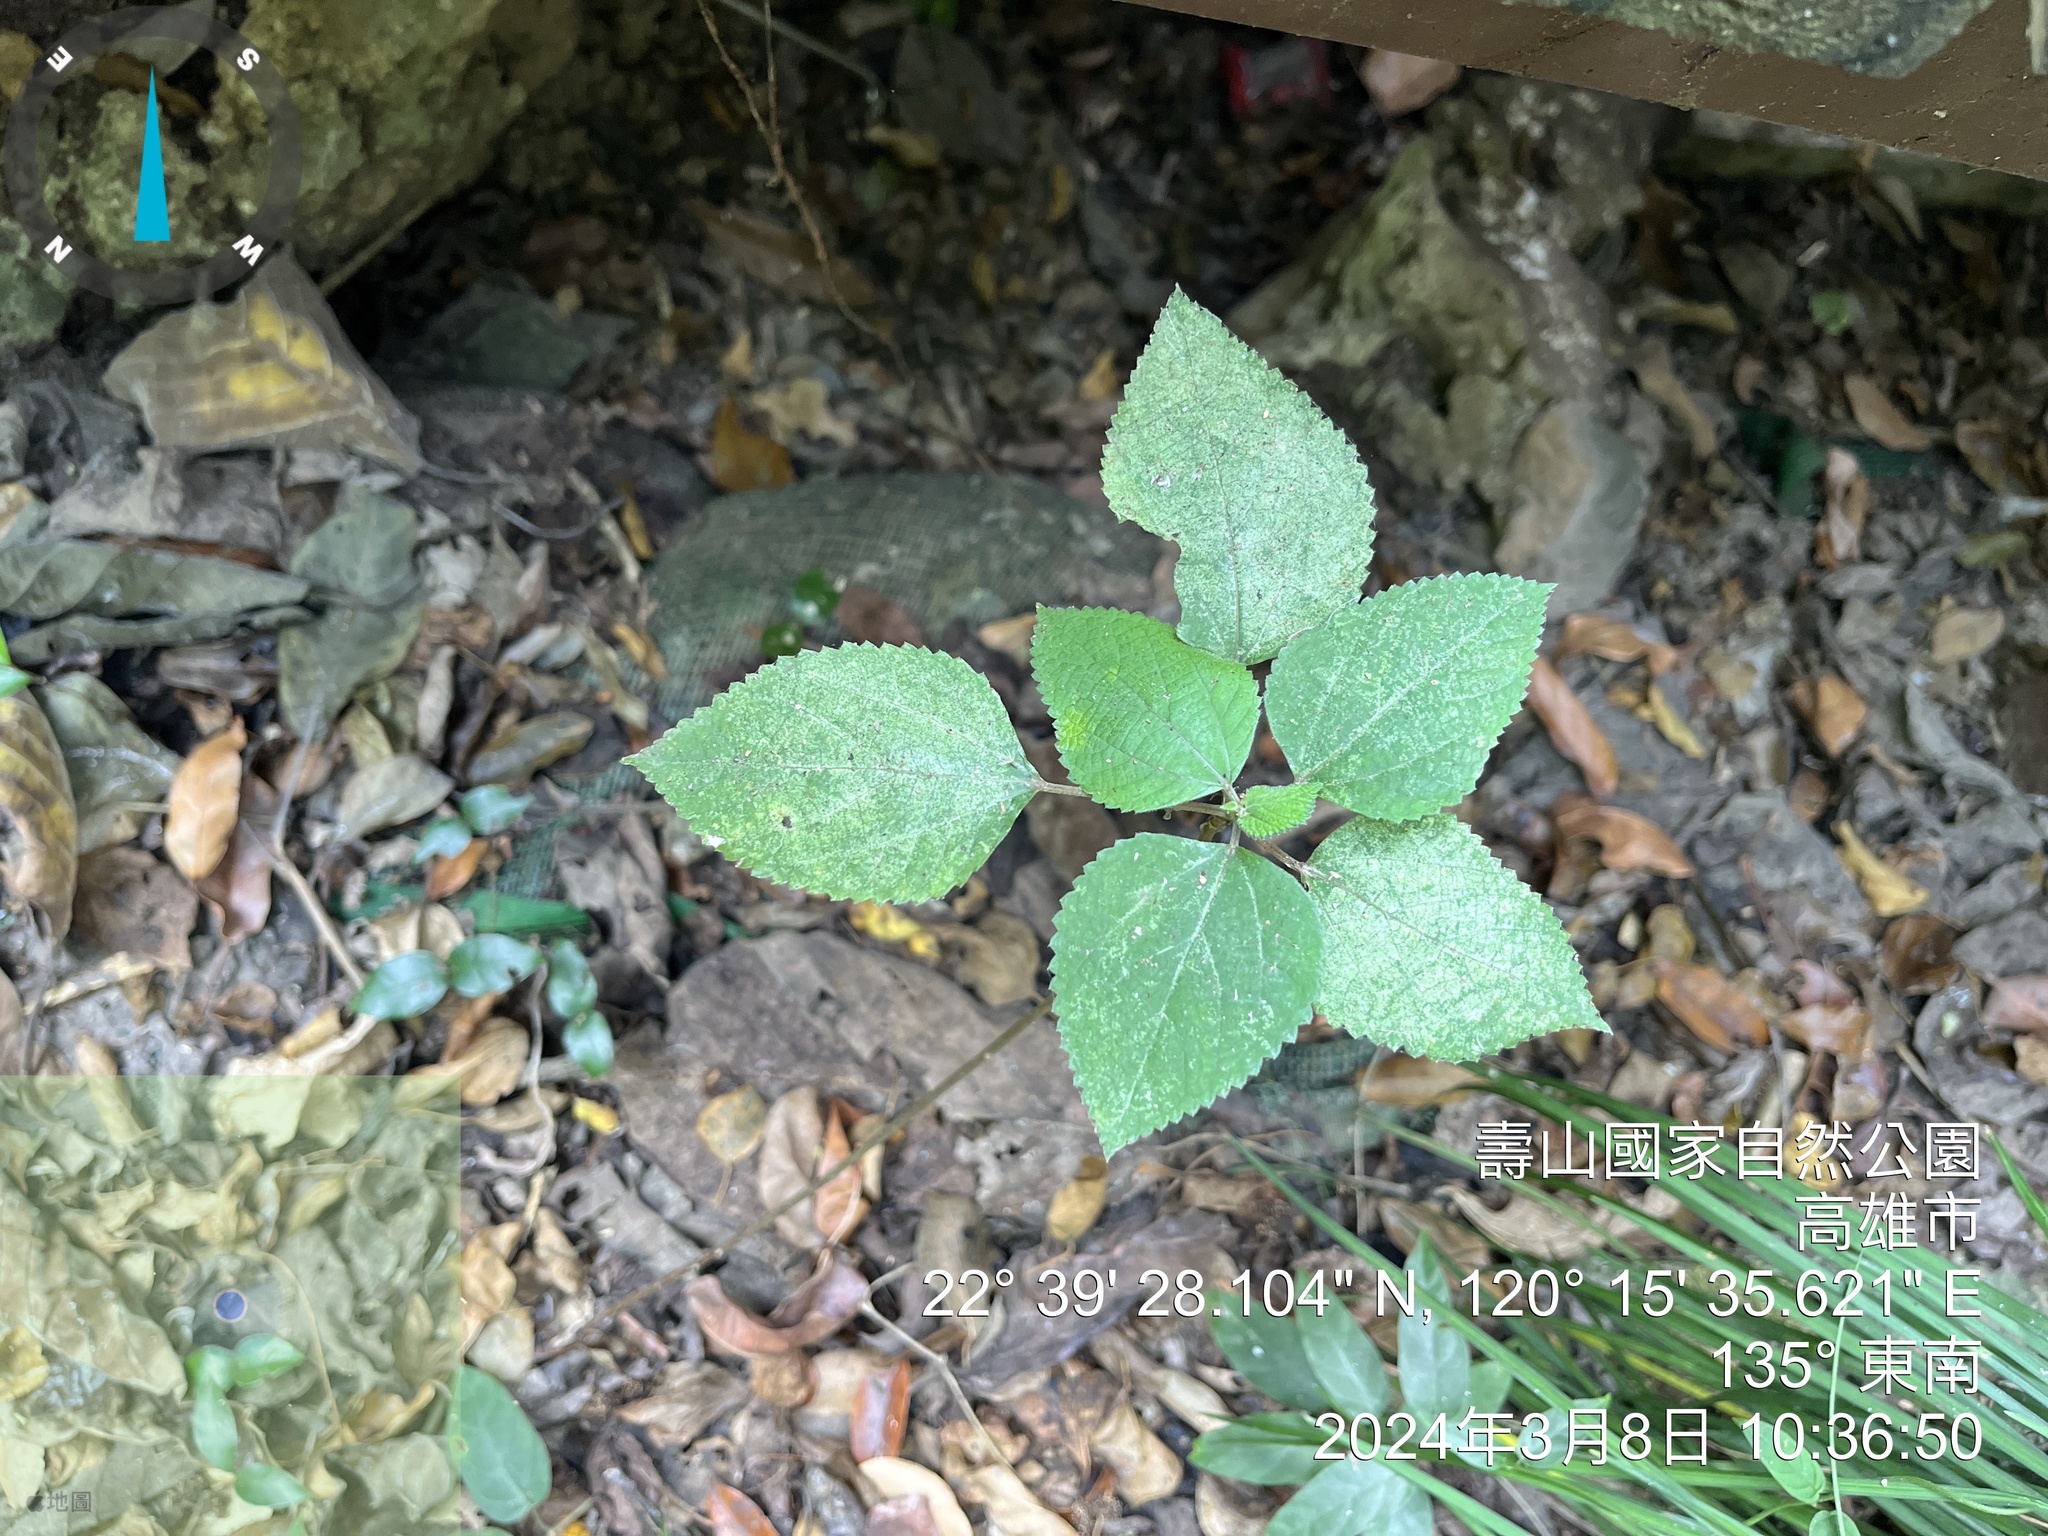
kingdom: Plantae
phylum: Tracheophyta
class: Magnoliopsida
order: Rosales
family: Urticaceae
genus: Boehmeria
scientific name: Boehmeria nivea
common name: Ramie chinese grass
